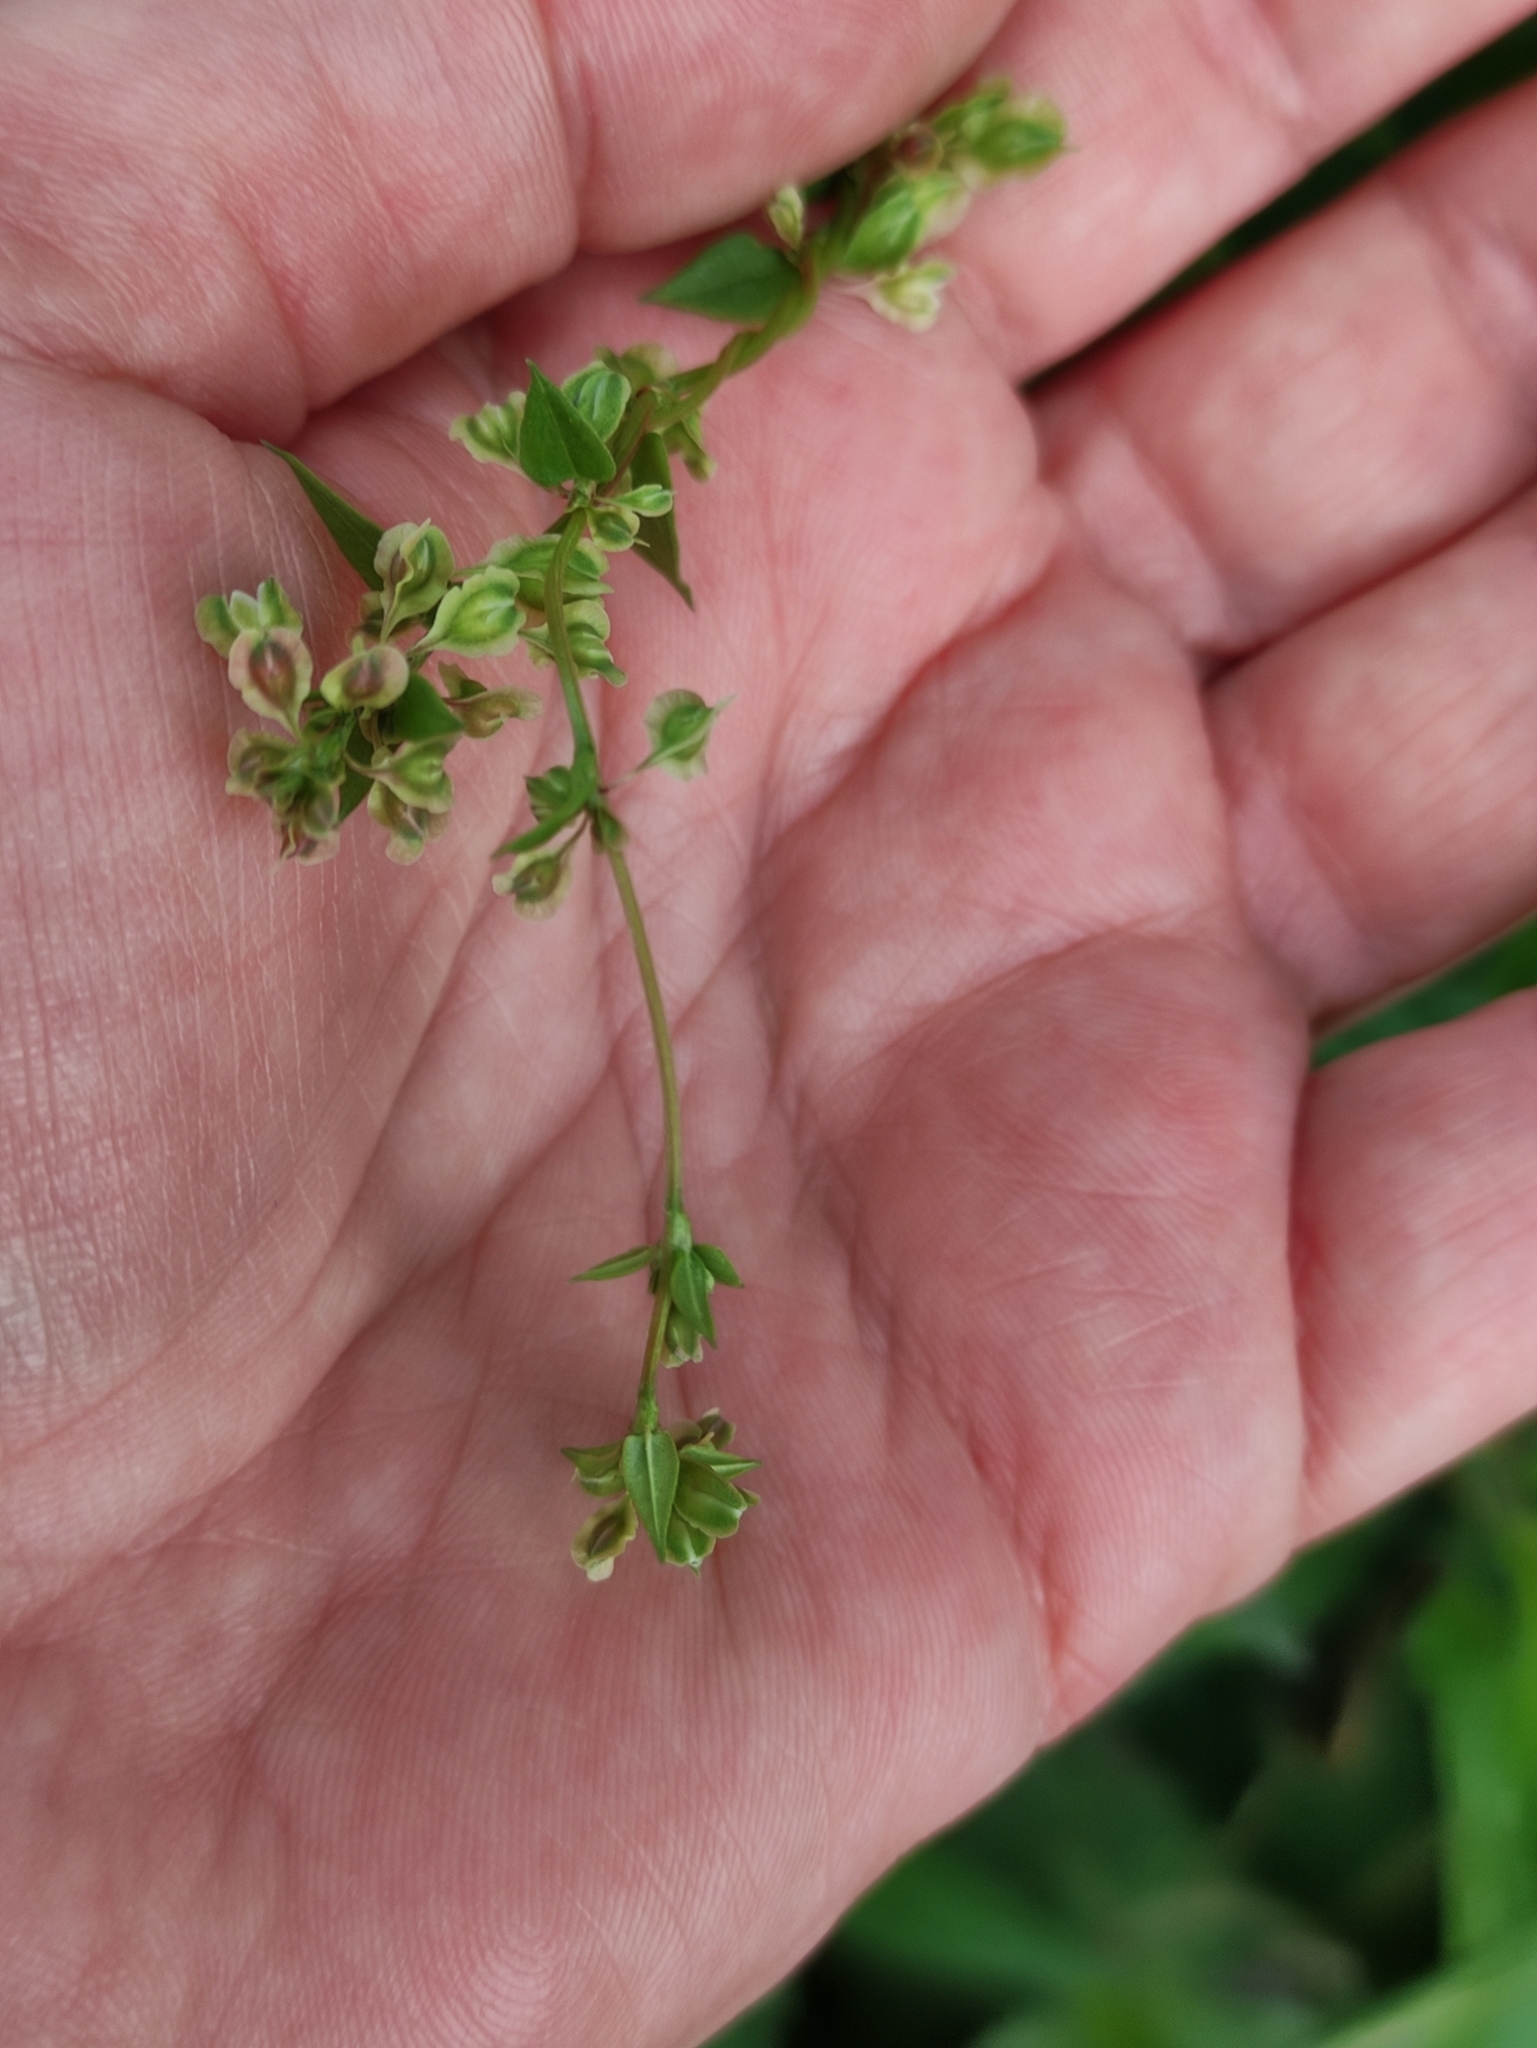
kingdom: Plantae
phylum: Tracheophyta
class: Magnoliopsida
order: Caryophyllales
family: Polygonaceae
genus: Fallopia
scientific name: Fallopia dumetorum
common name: Copse-bindweed
